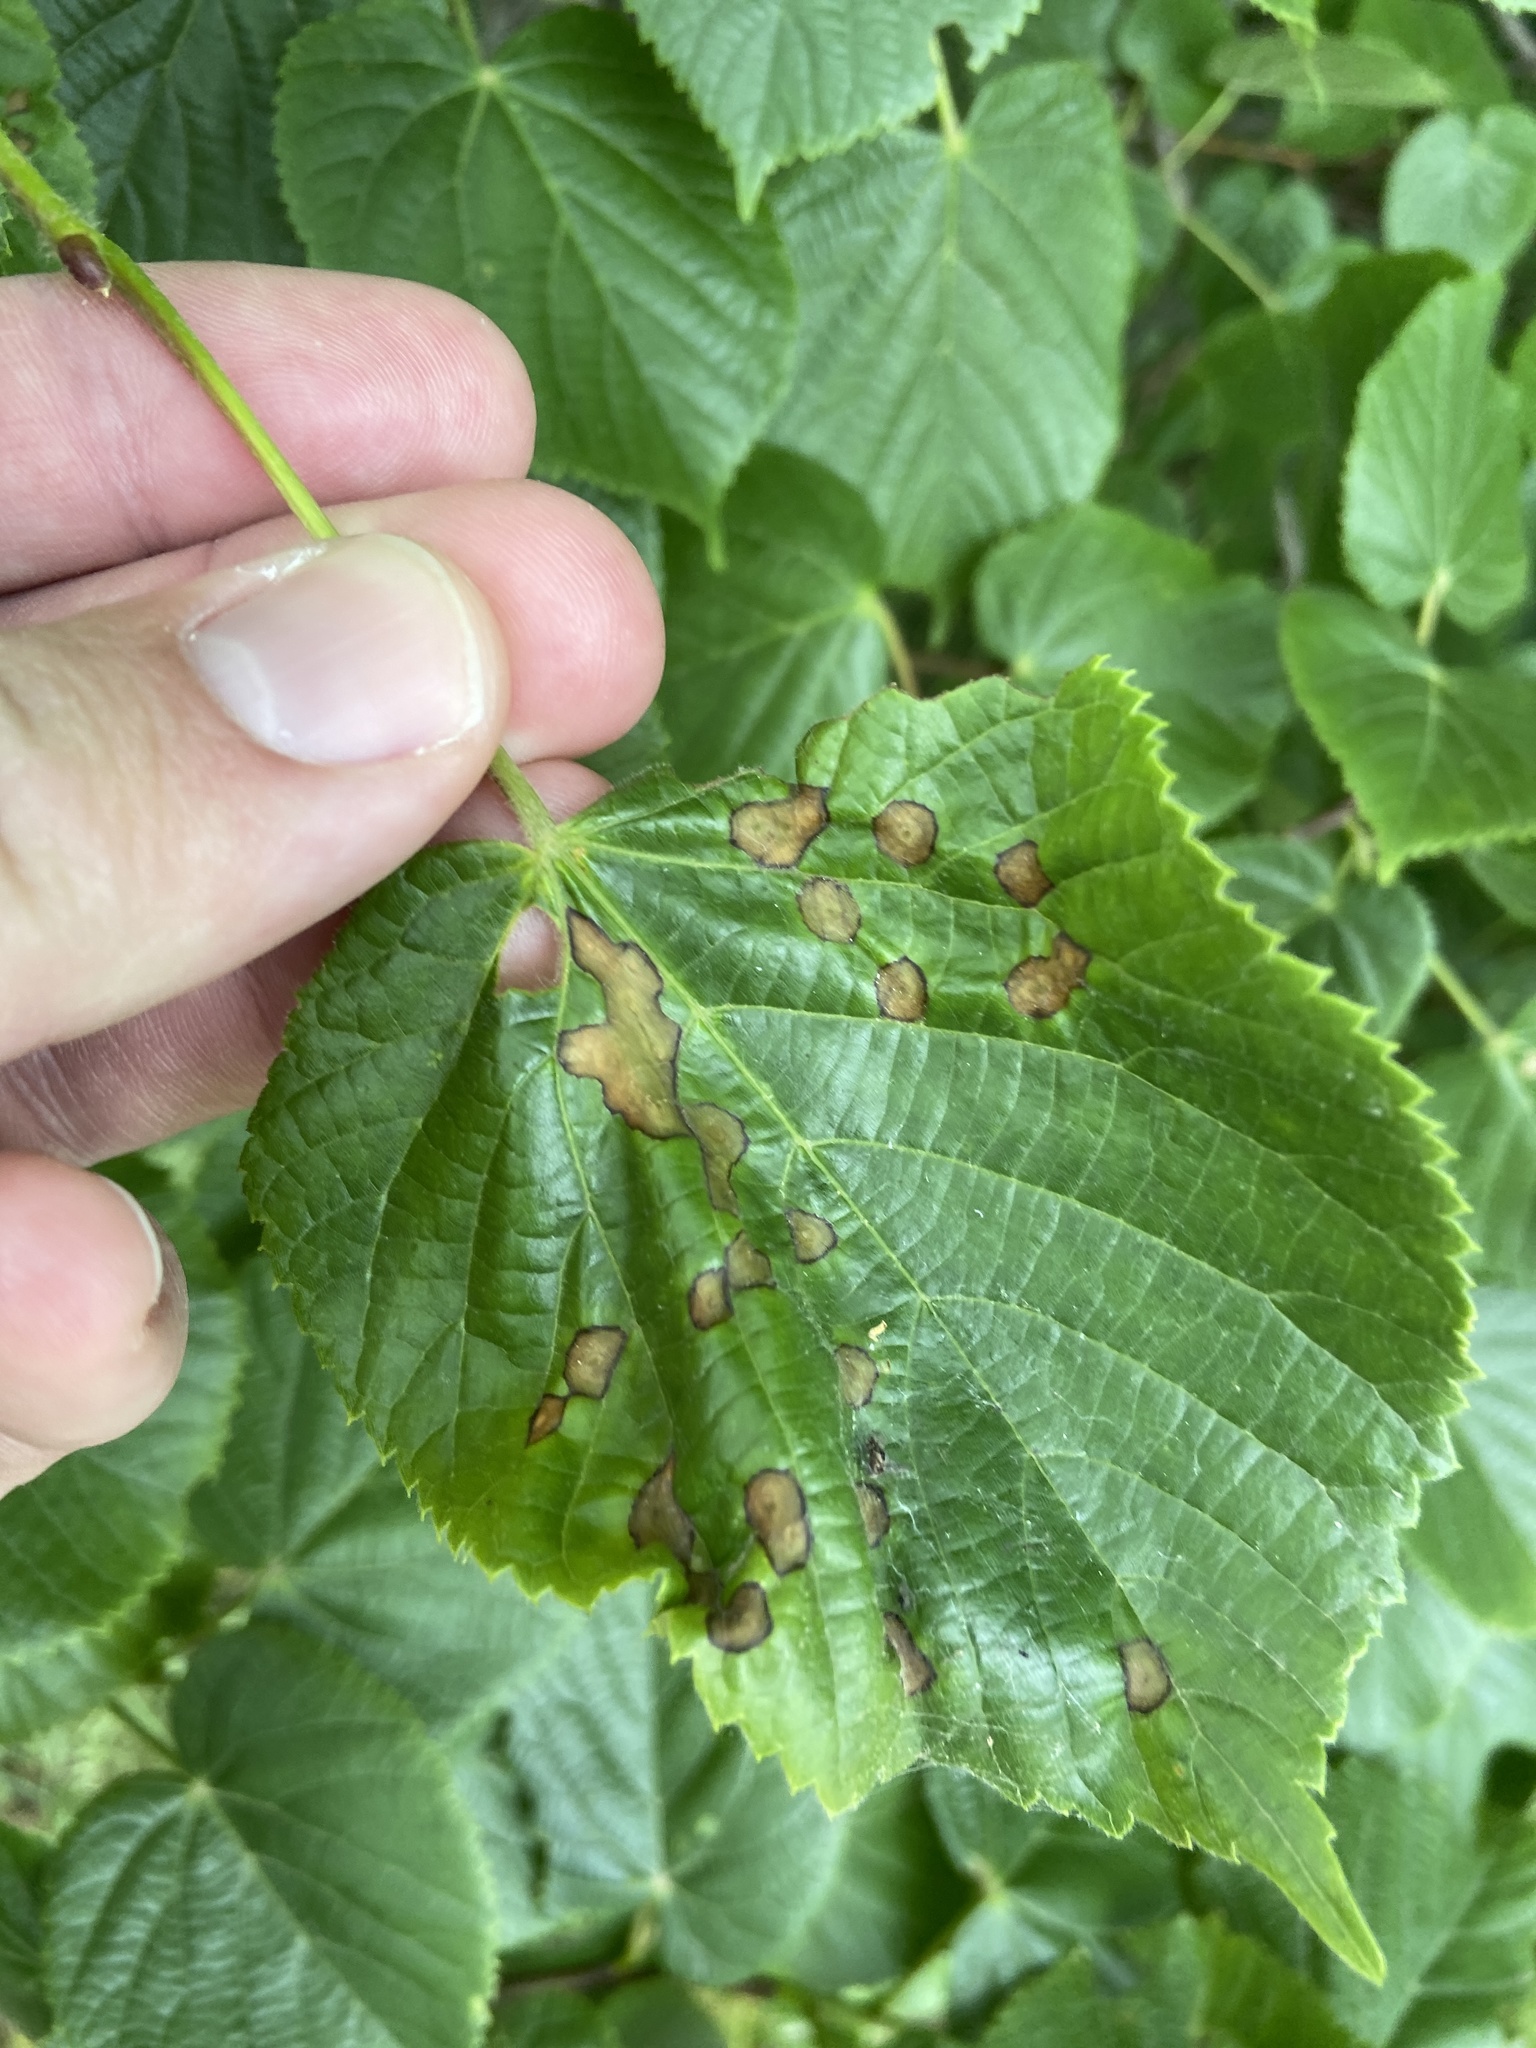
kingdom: Animalia
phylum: Arthropoda
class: Insecta
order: Diptera
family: Cecidomyiidae
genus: Physemocecis
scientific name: Physemocecis hartigi
